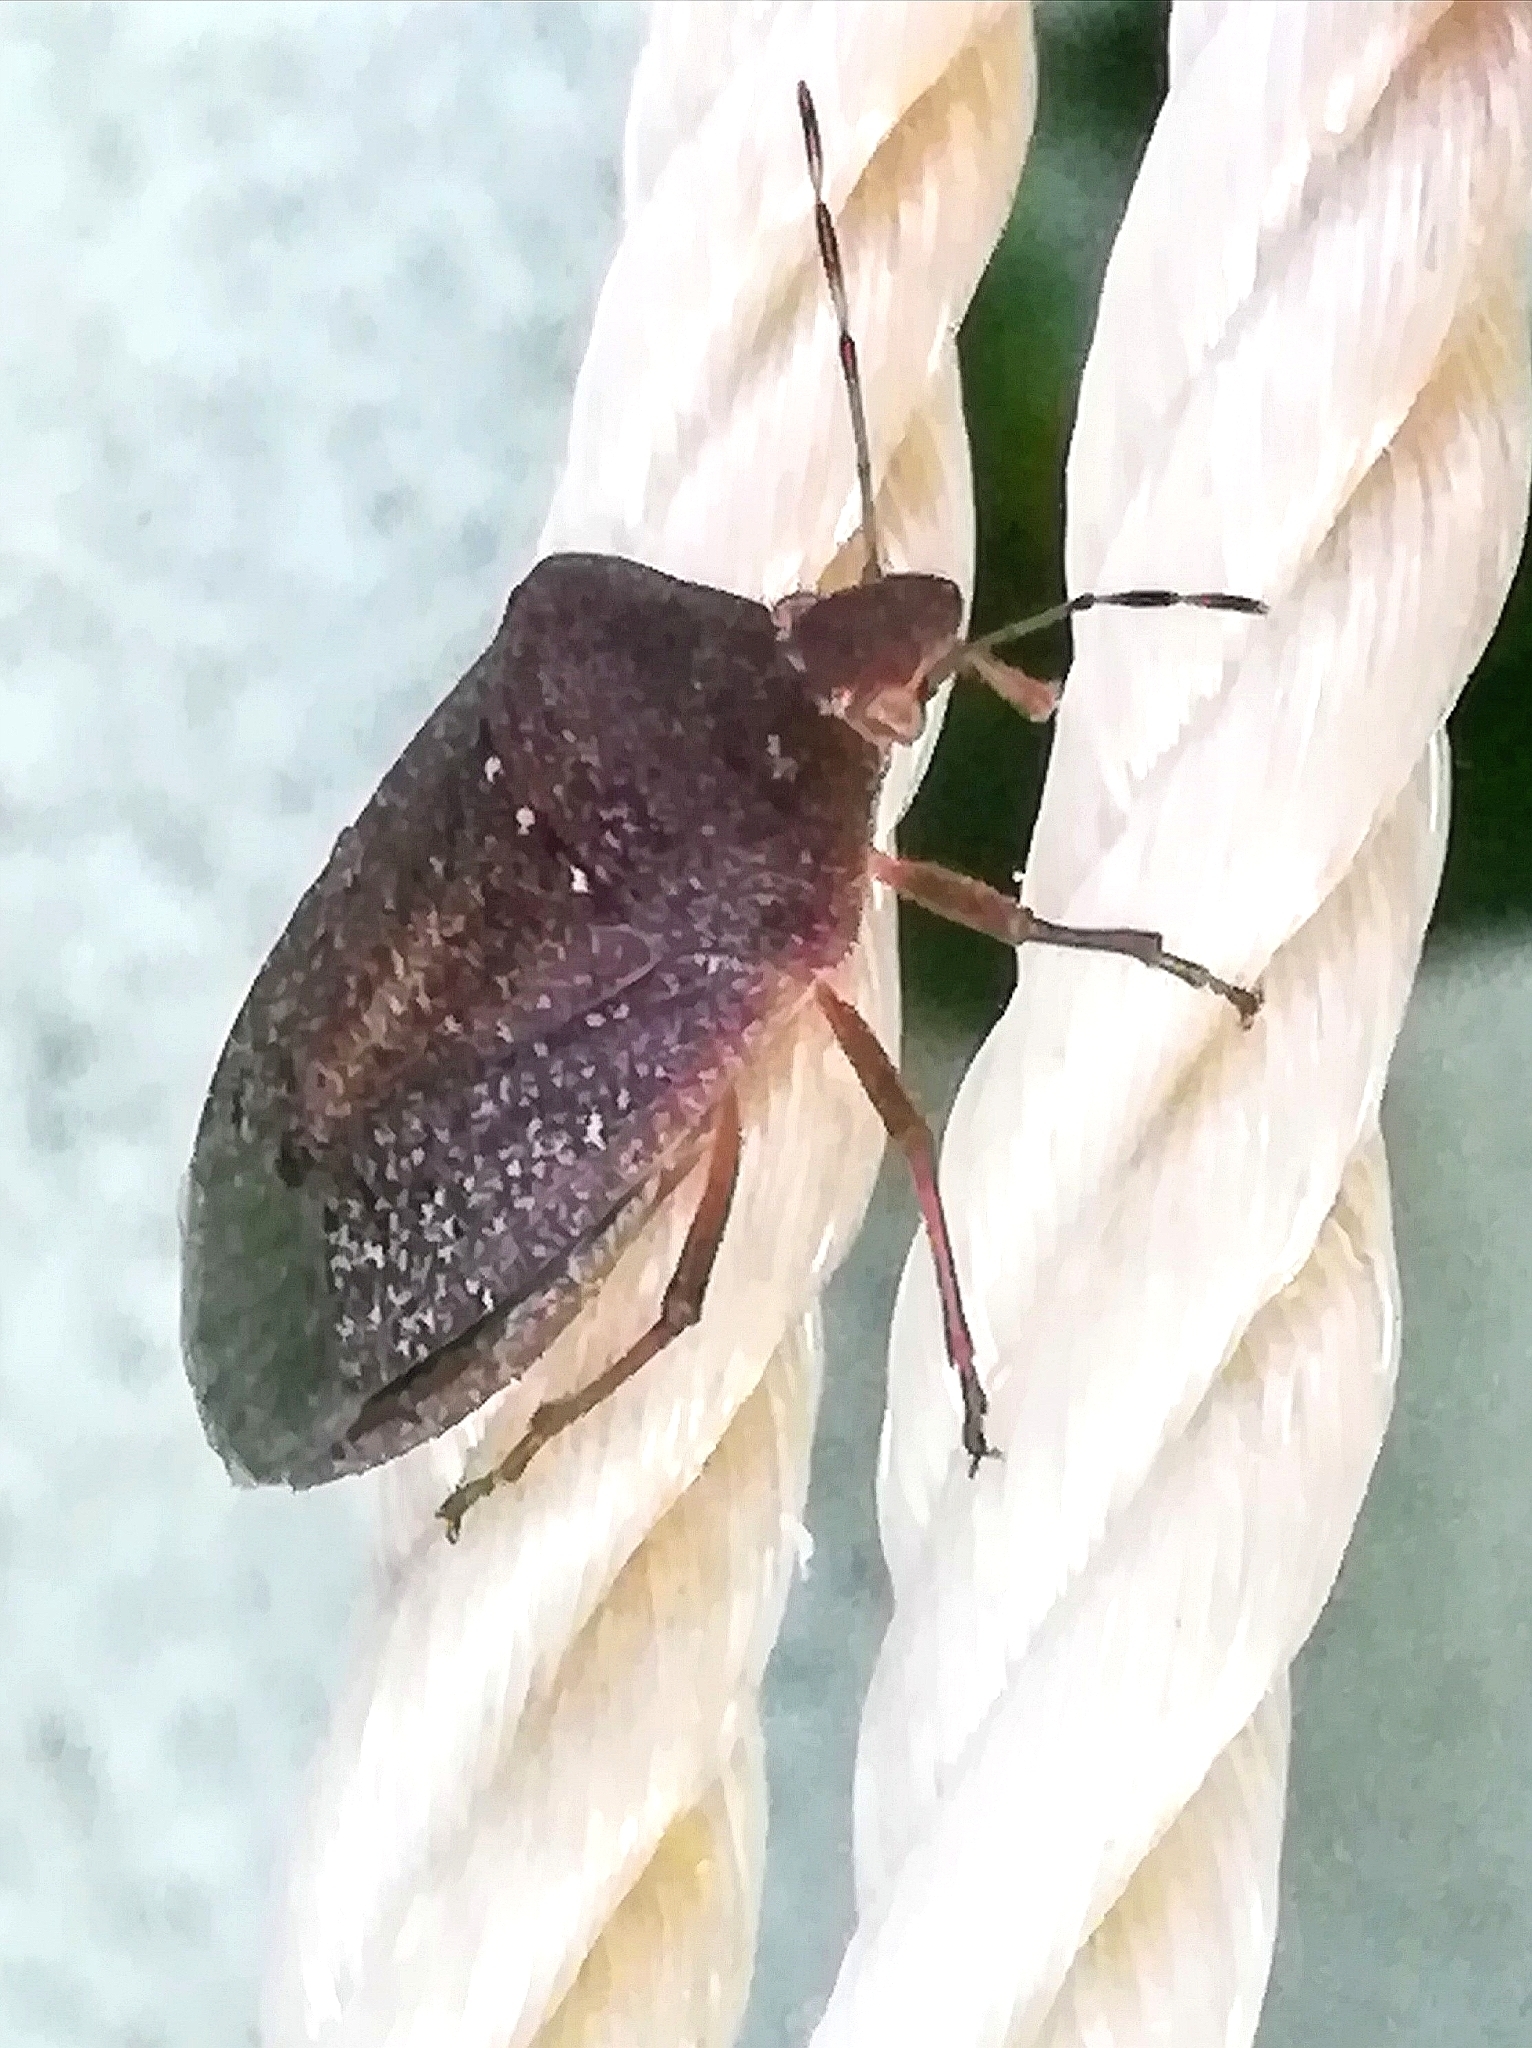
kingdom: Animalia
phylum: Arthropoda
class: Insecta
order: Hemiptera
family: Pentatomidae
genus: Nezara
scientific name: Nezara viridula
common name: Southern green stink bug
